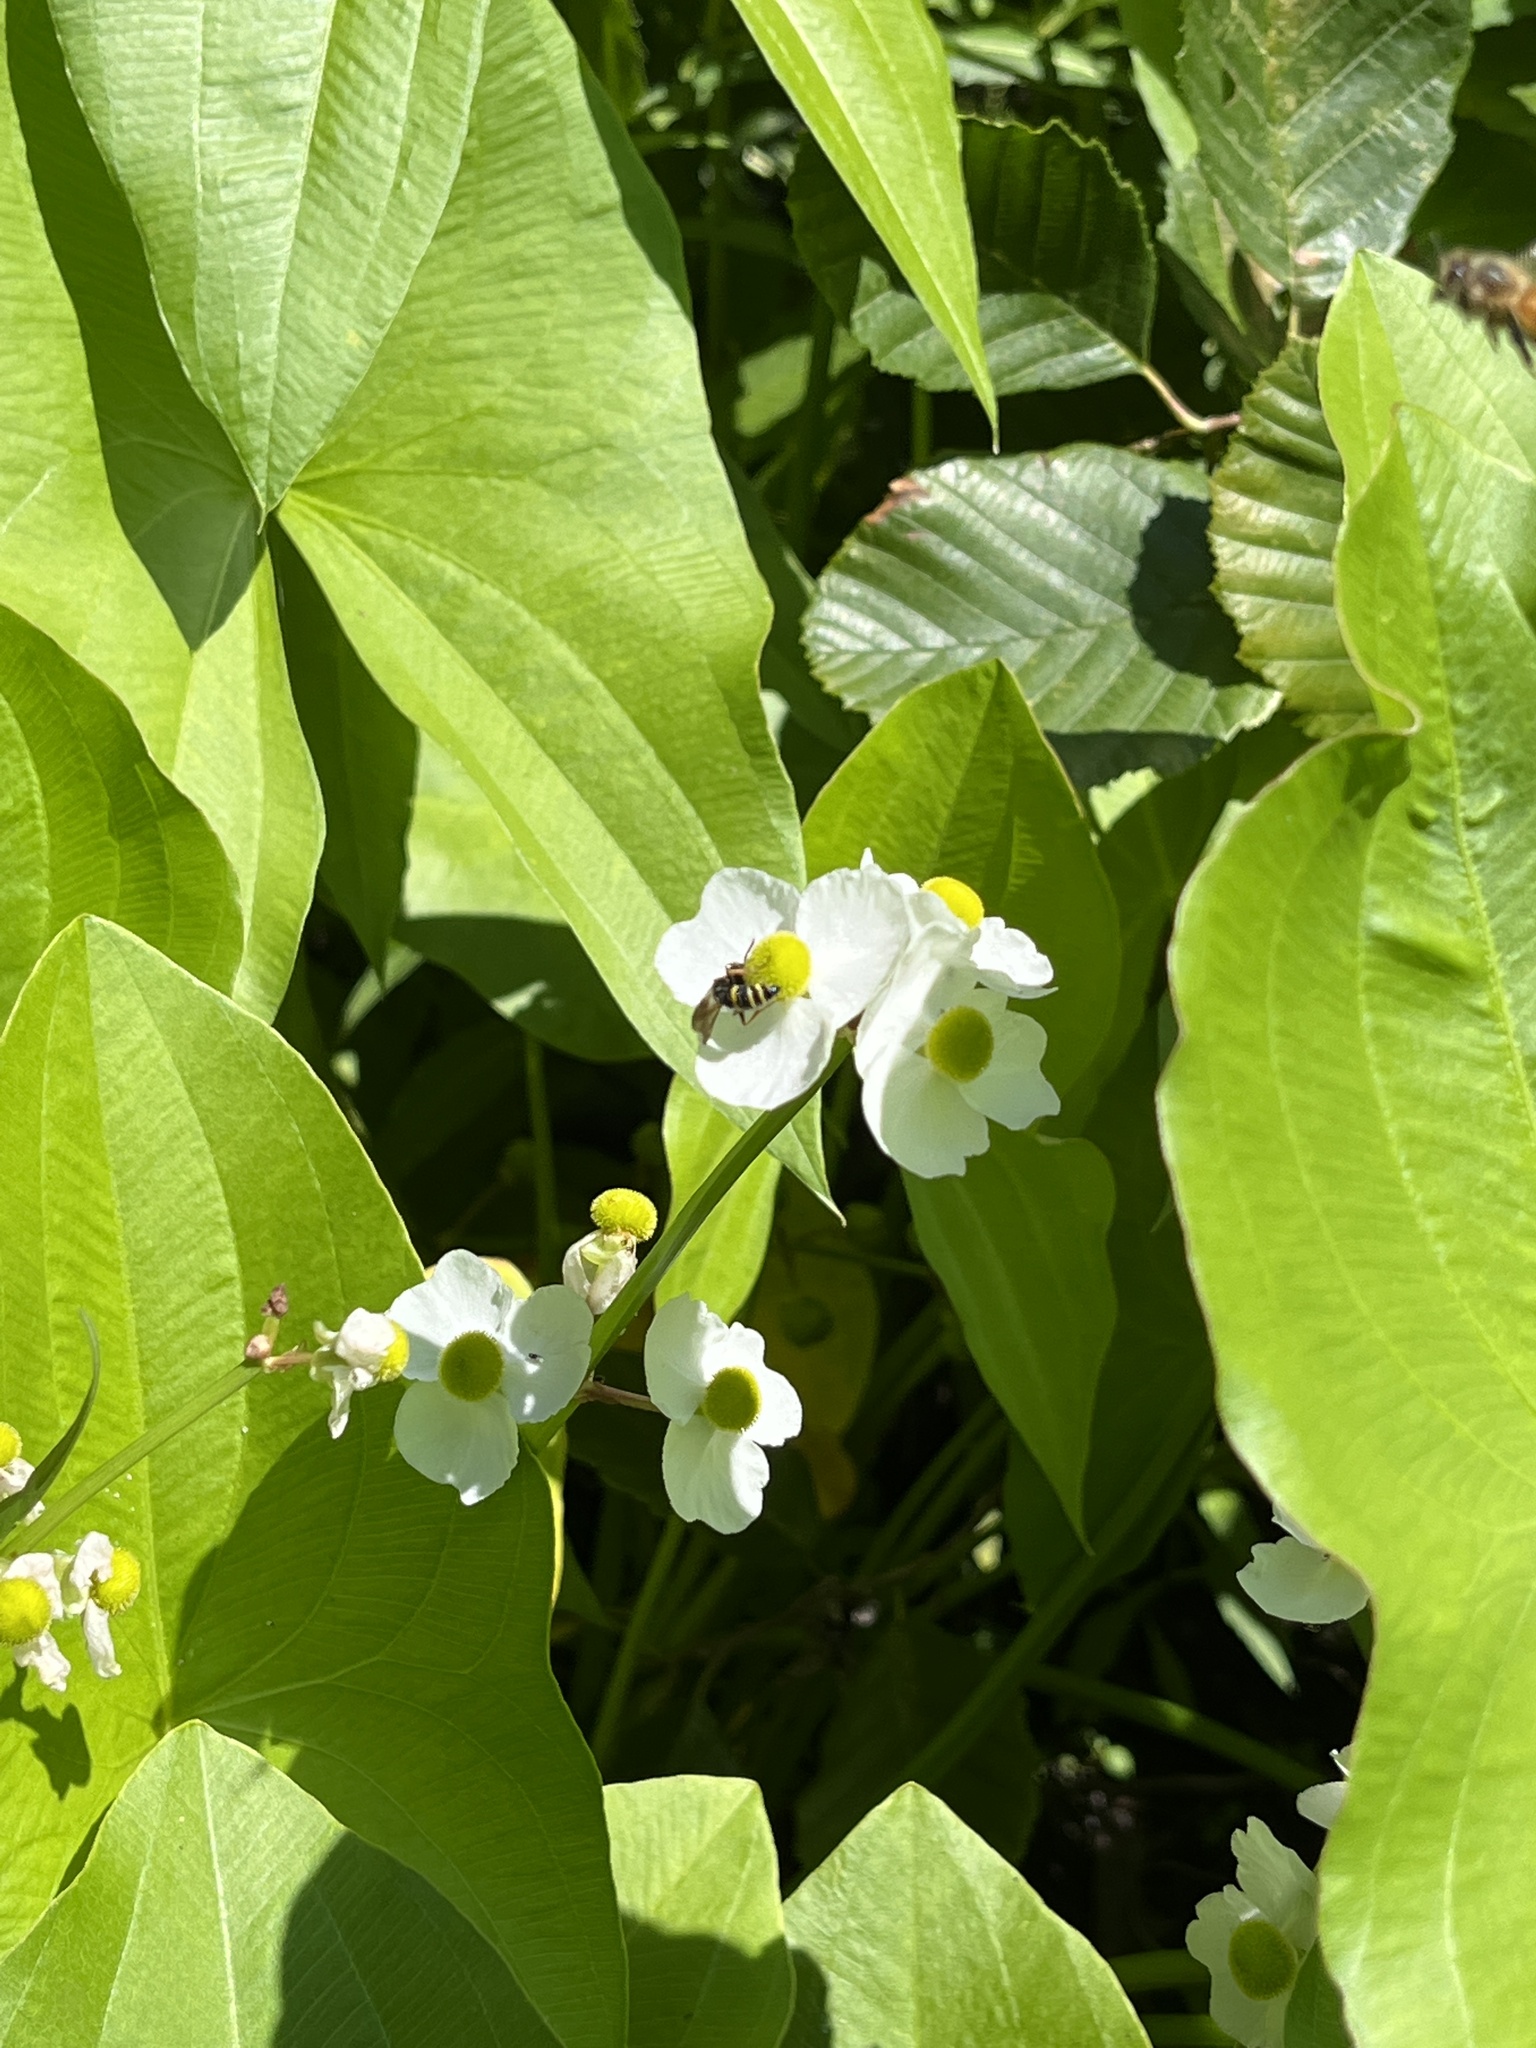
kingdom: Plantae
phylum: Tracheophyta
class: Liliopsida
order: Alismatales
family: Alismataceae
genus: Sagittaria
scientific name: Sagittaria latifolia
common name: Duck-potato
